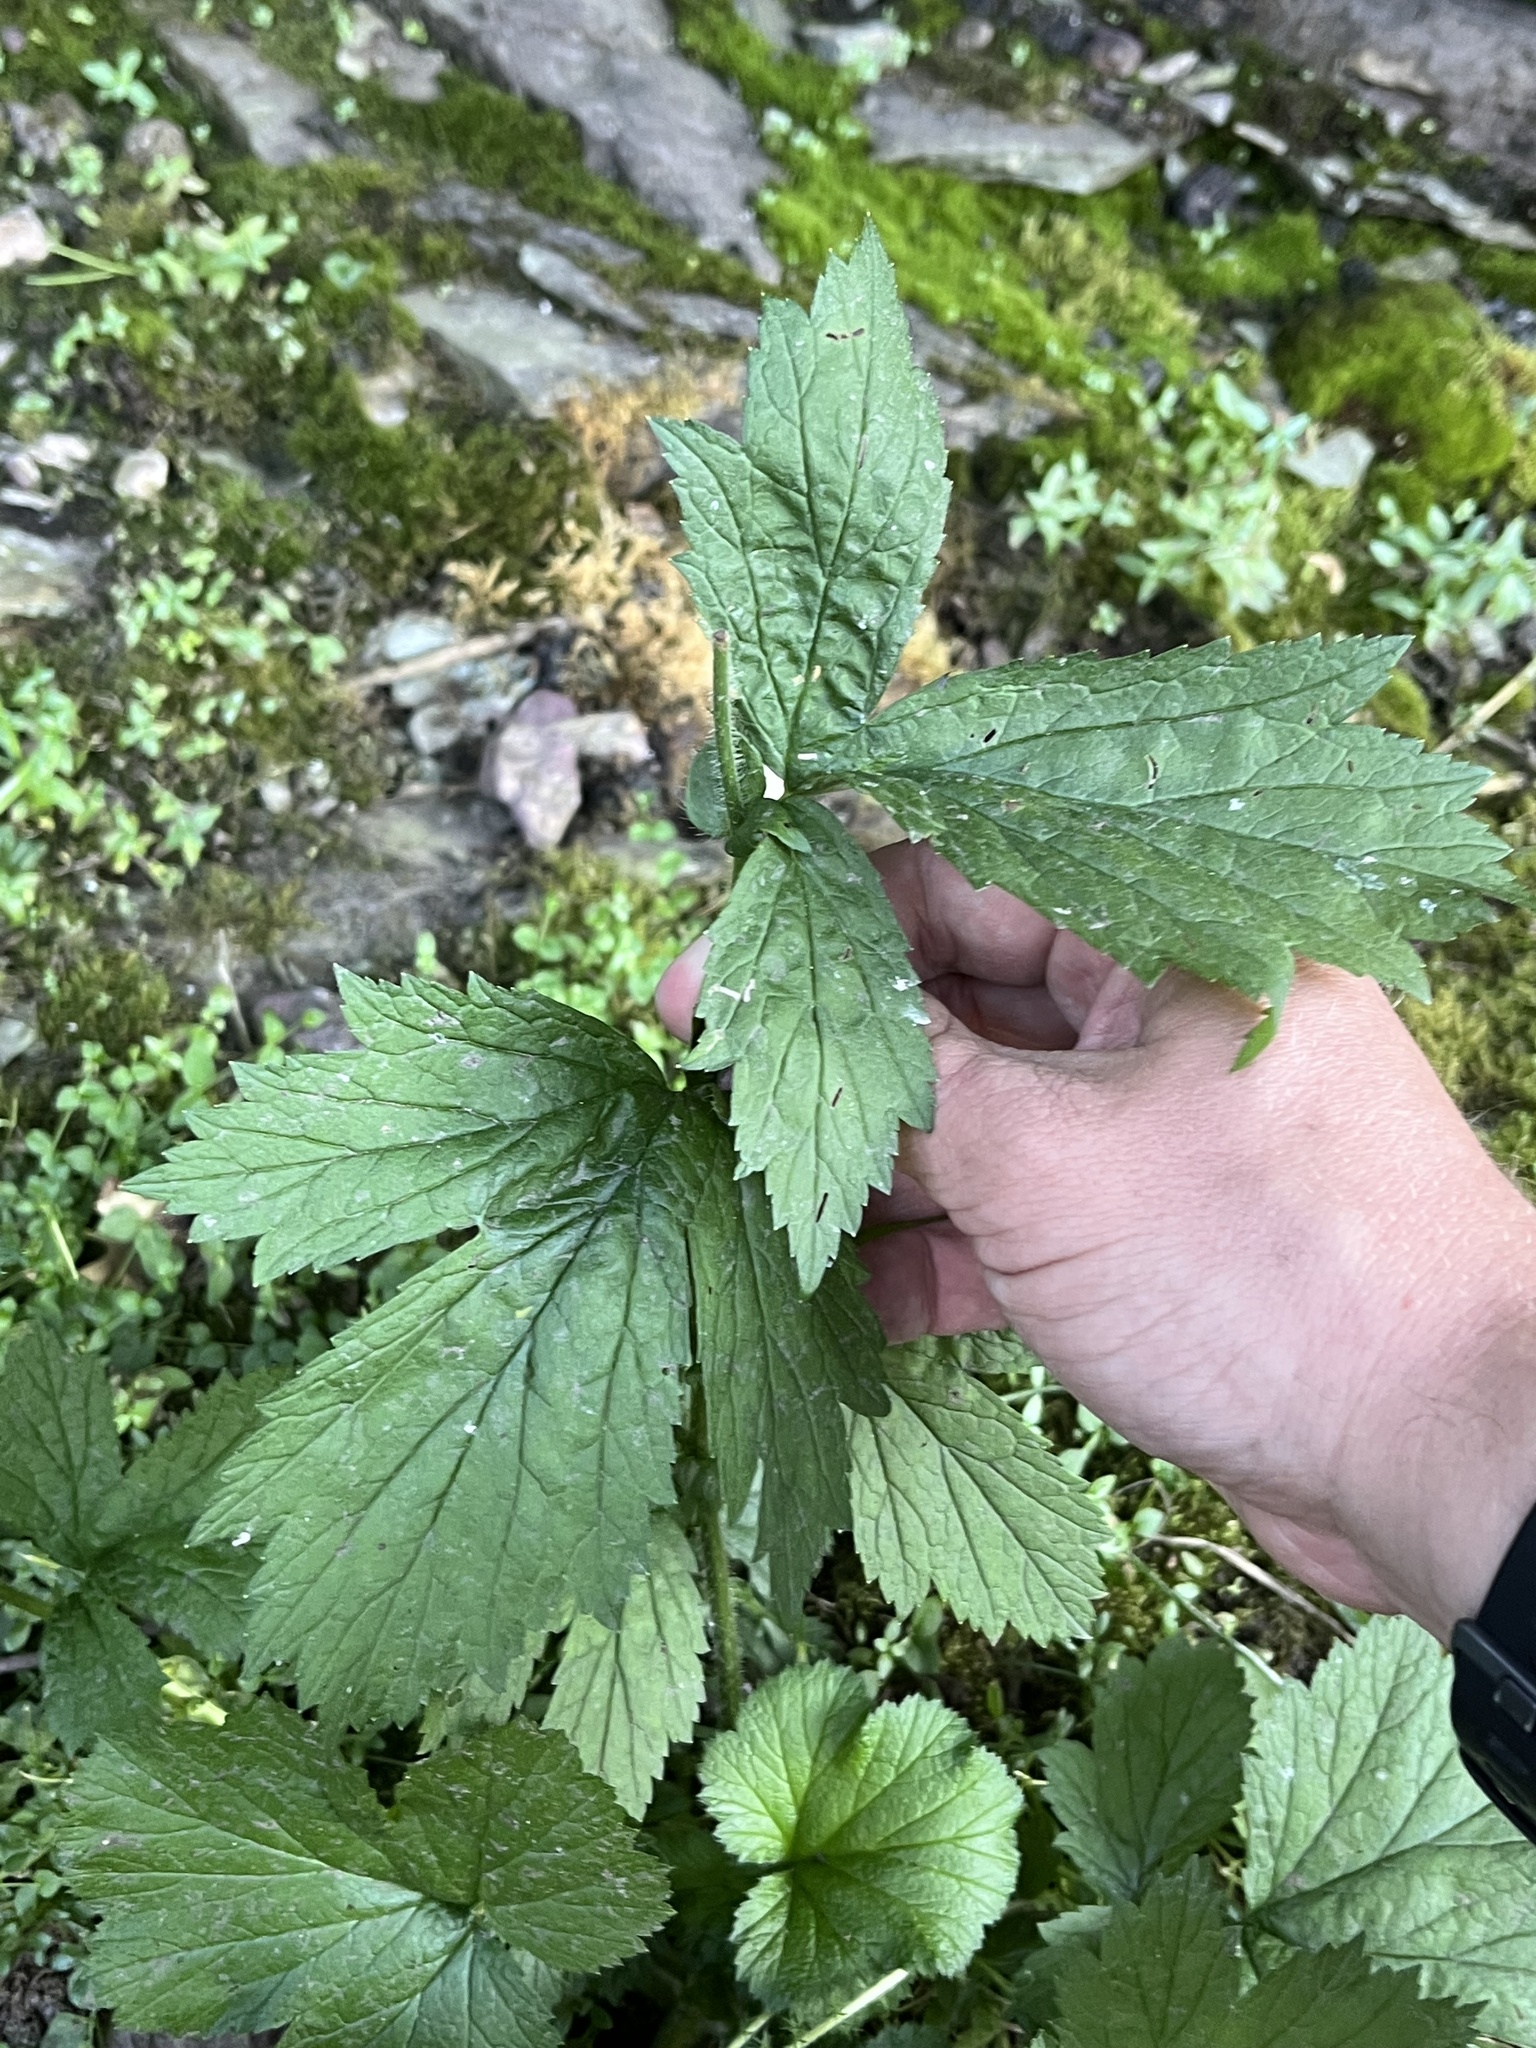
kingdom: Plantae
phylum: Tracheophyta
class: Magnoliopsida
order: Rosales
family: Rosaceae
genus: Geum
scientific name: Geum macrophyllum
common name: Large-leaved avens
